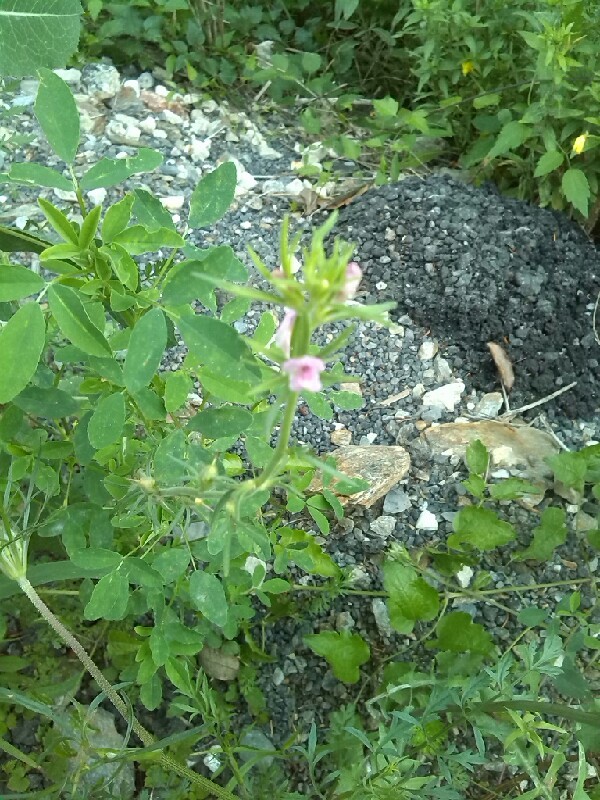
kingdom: Plantae
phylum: Tracheophyta
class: Magnoliopsida
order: Lamiales
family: Plantaginaceae
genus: Misopates
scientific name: Misopates orontium
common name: Weasel's-snout
